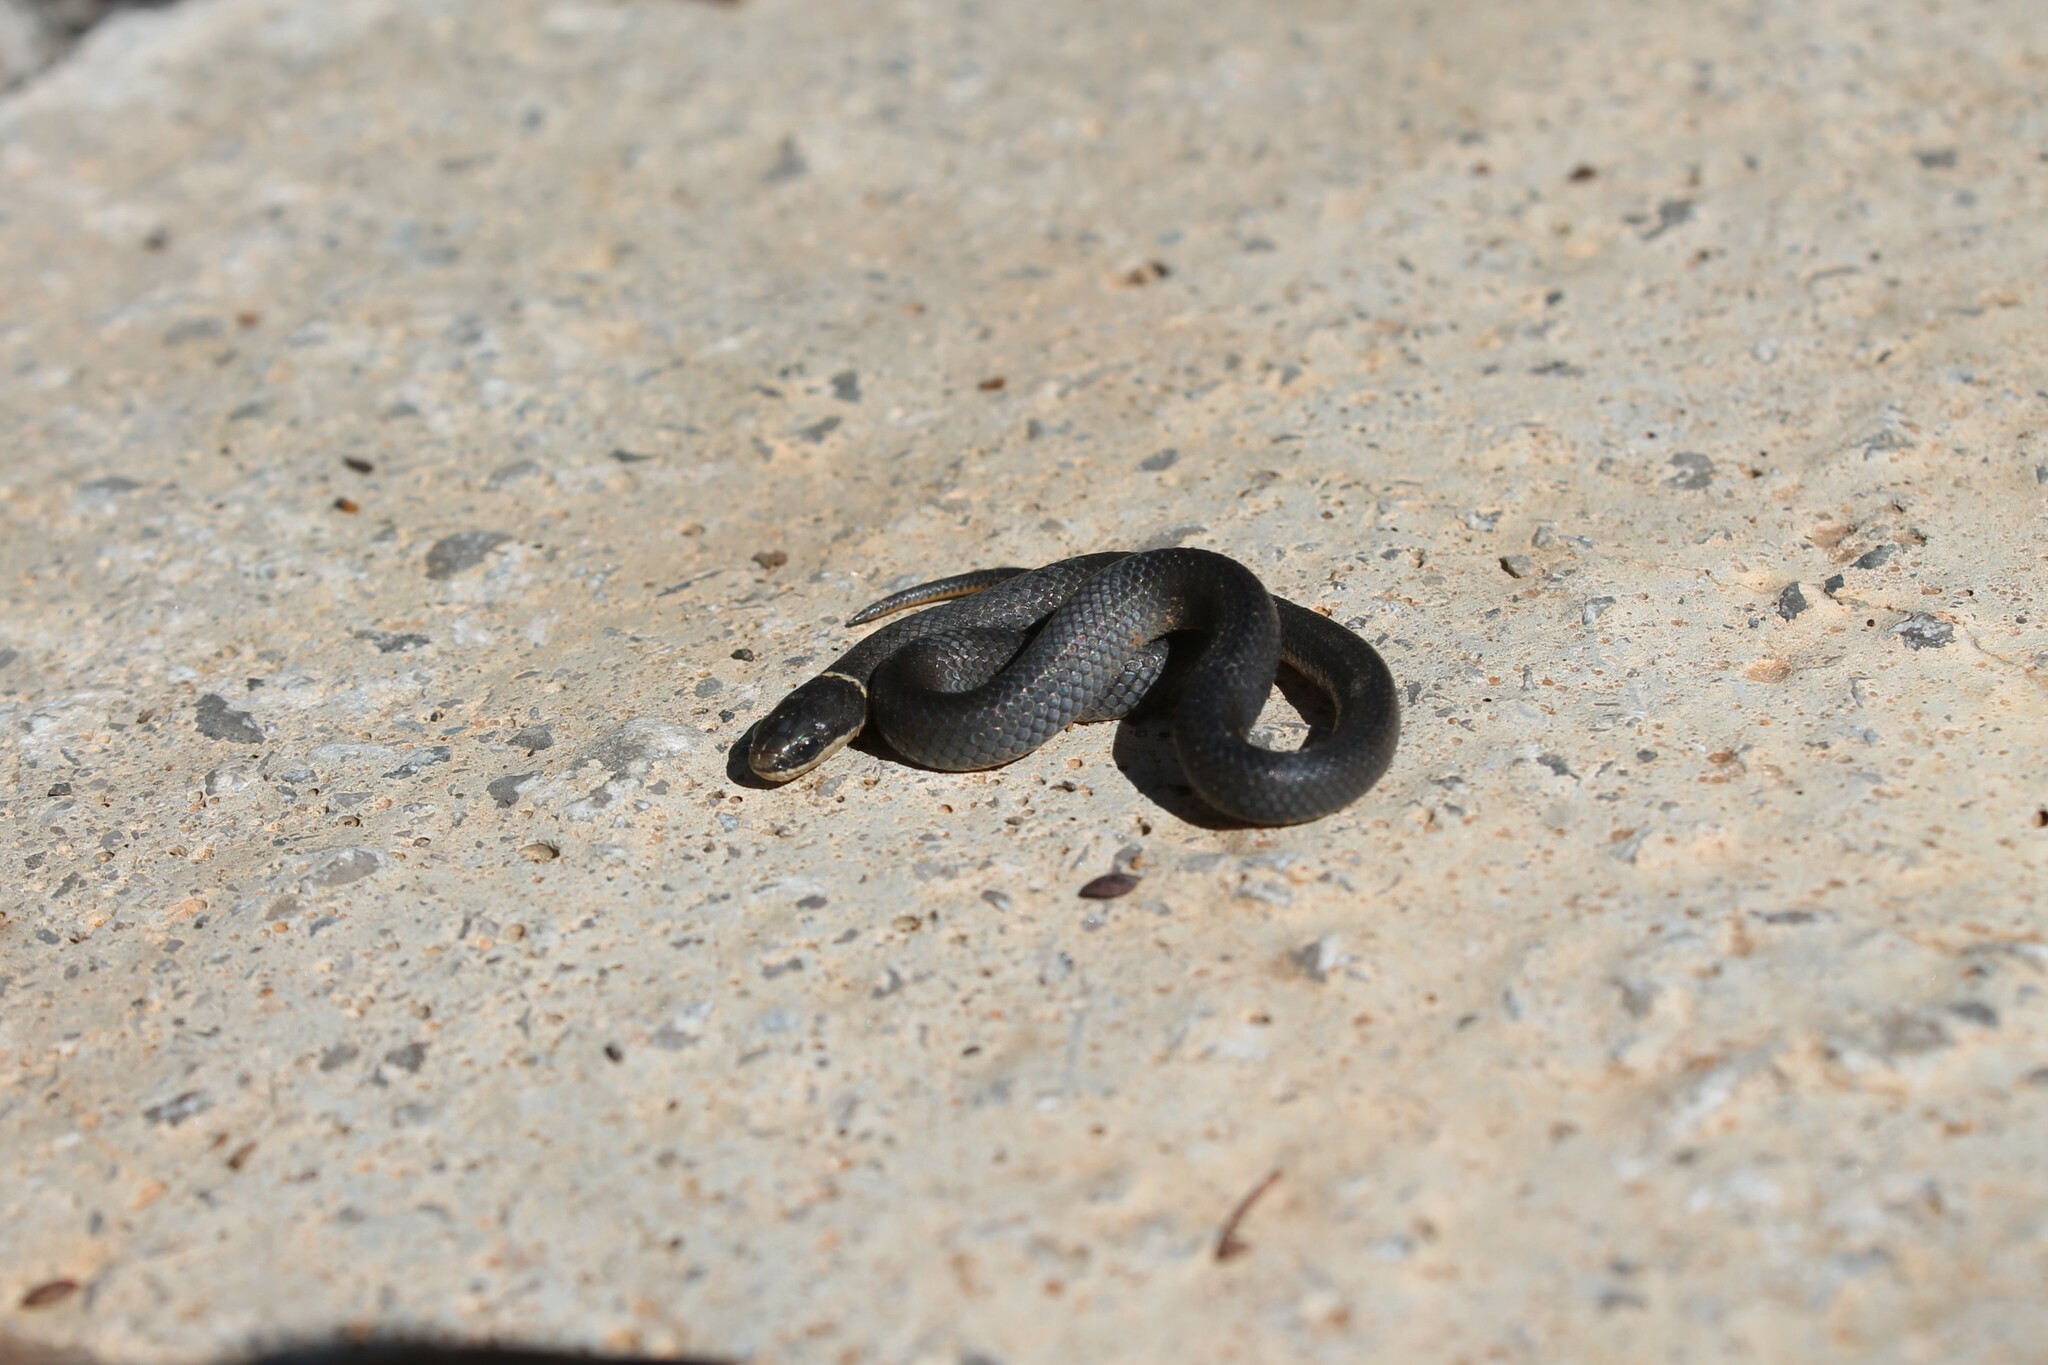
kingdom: Animalia
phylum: Chordata
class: Squamata
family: Colubridae
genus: Diadophis
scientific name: Diadophis punctatus
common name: Ringneck snake
